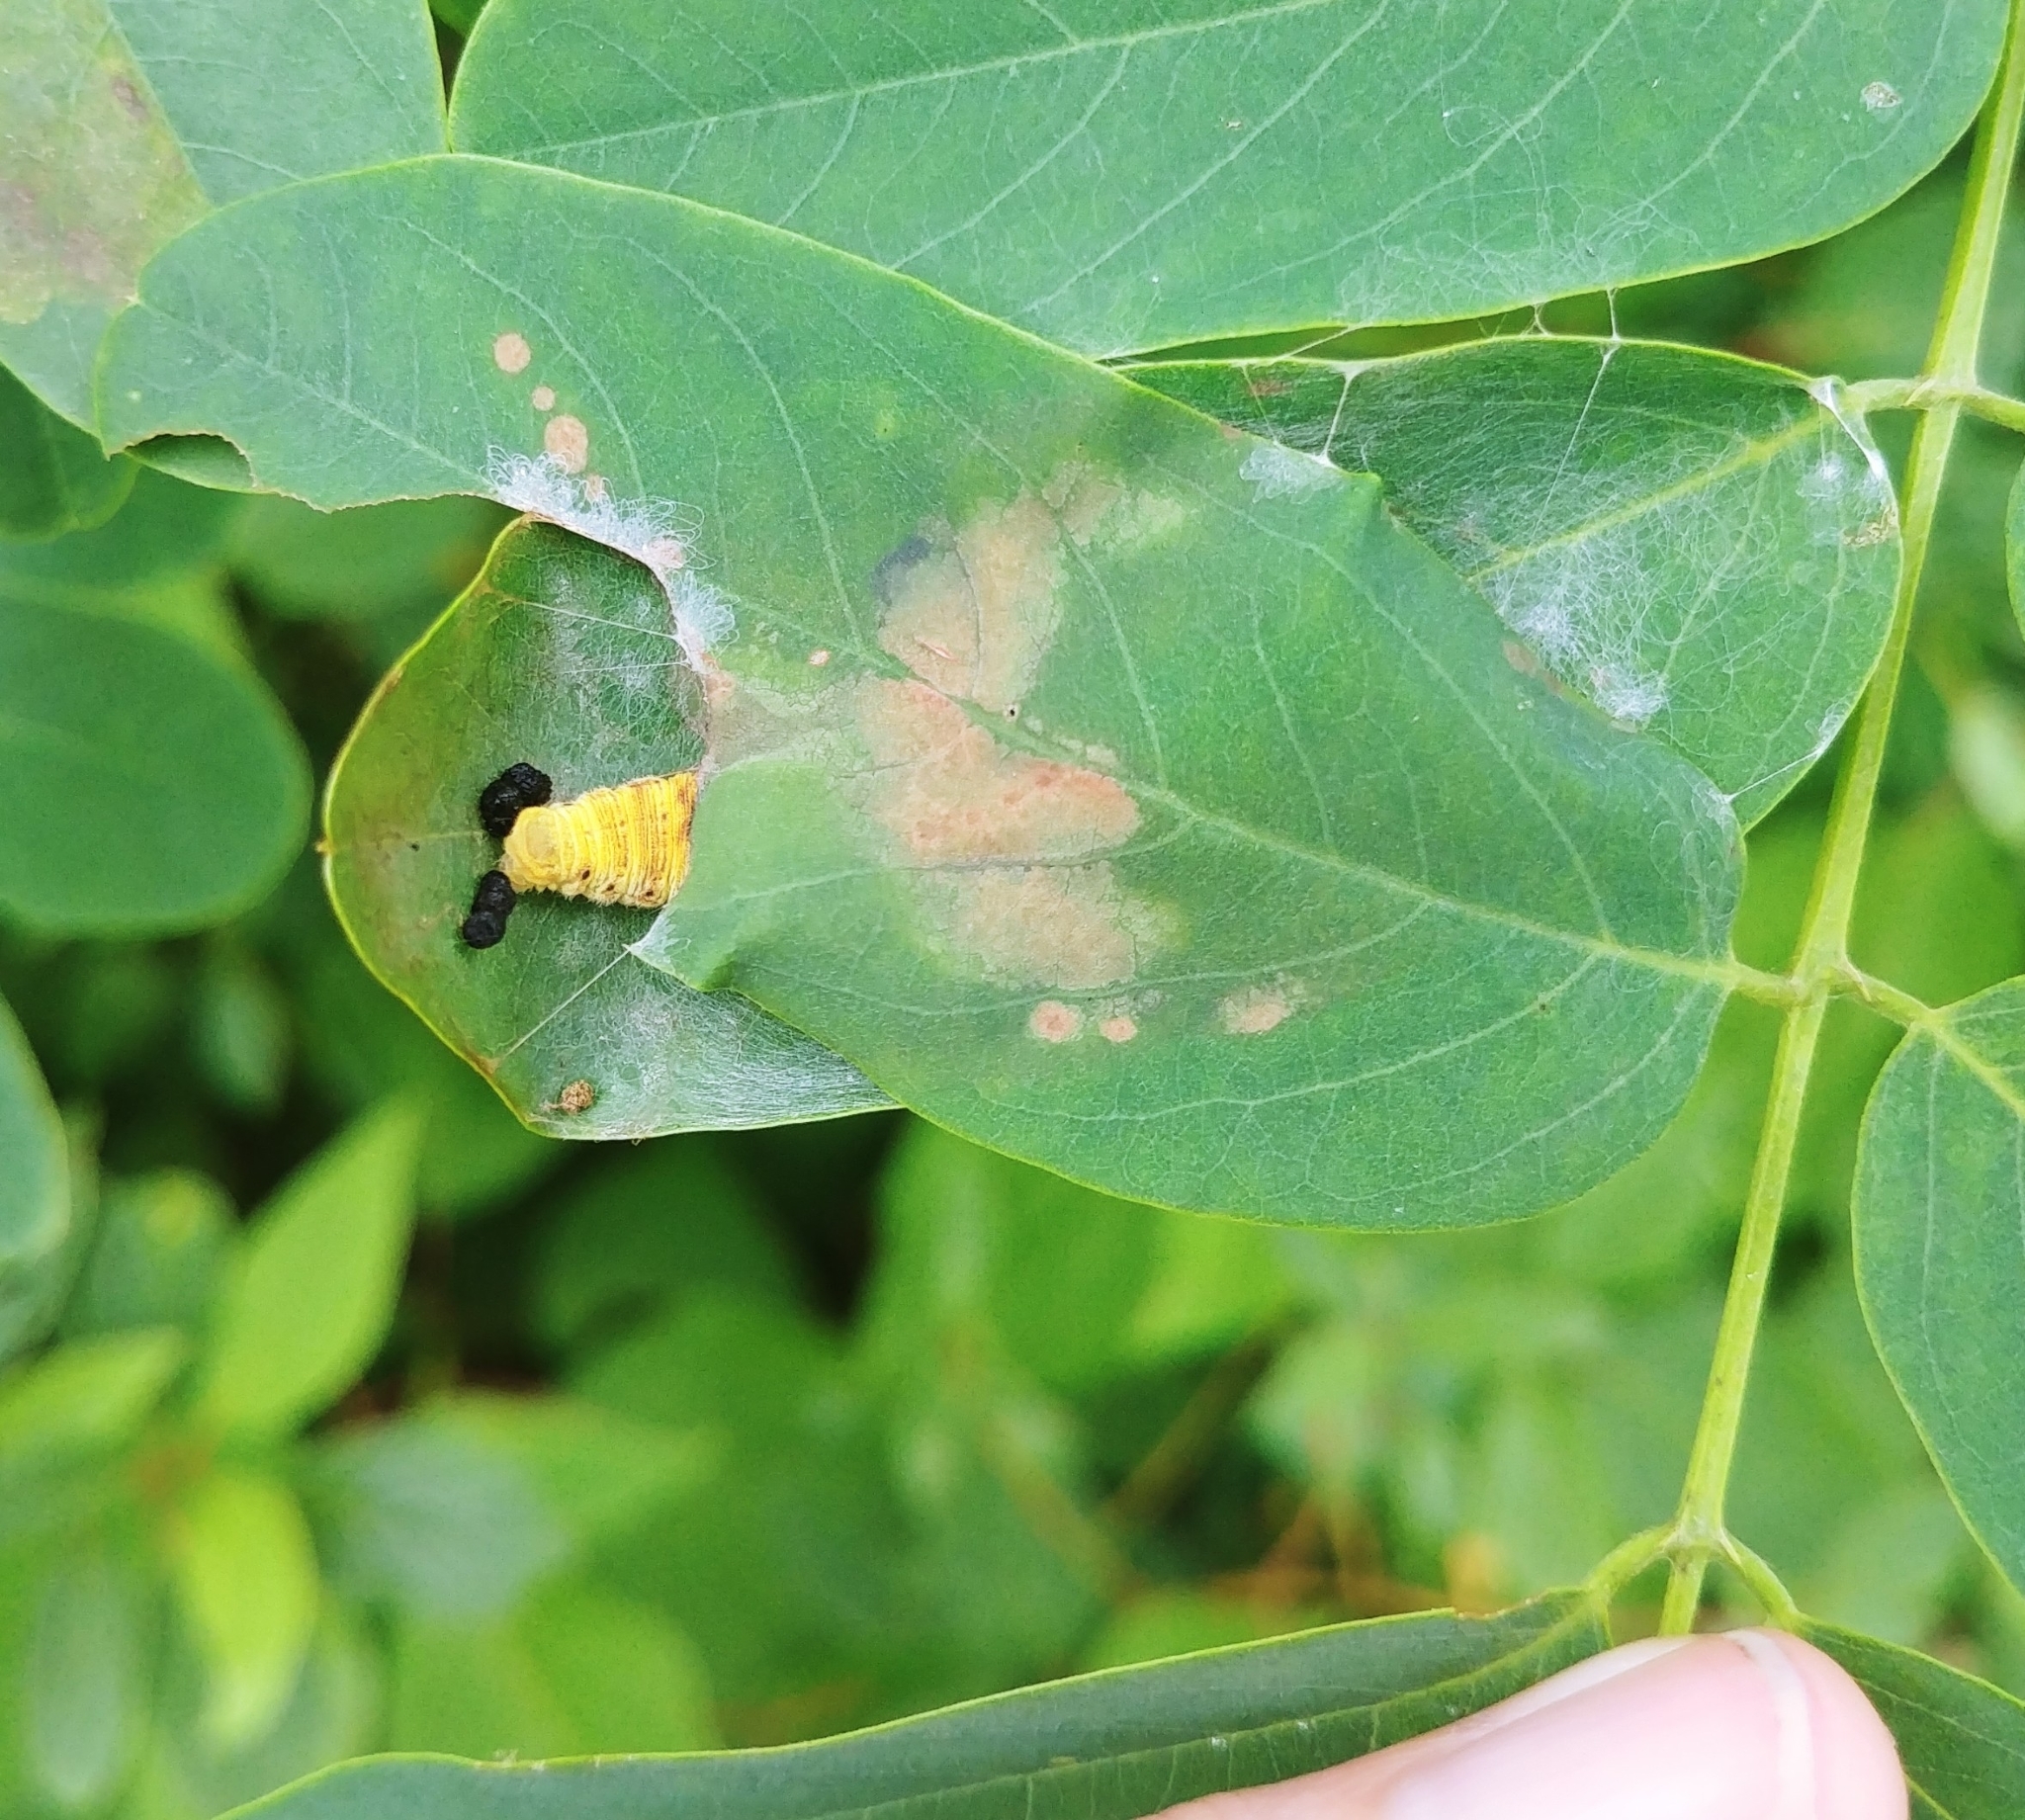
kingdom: Animalia
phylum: Arthropoda
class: Insecta
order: Lepidoptera
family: Hesperiidae
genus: Epargyreus
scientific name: Epargyreus clarus
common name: Silver-spotted skipper
